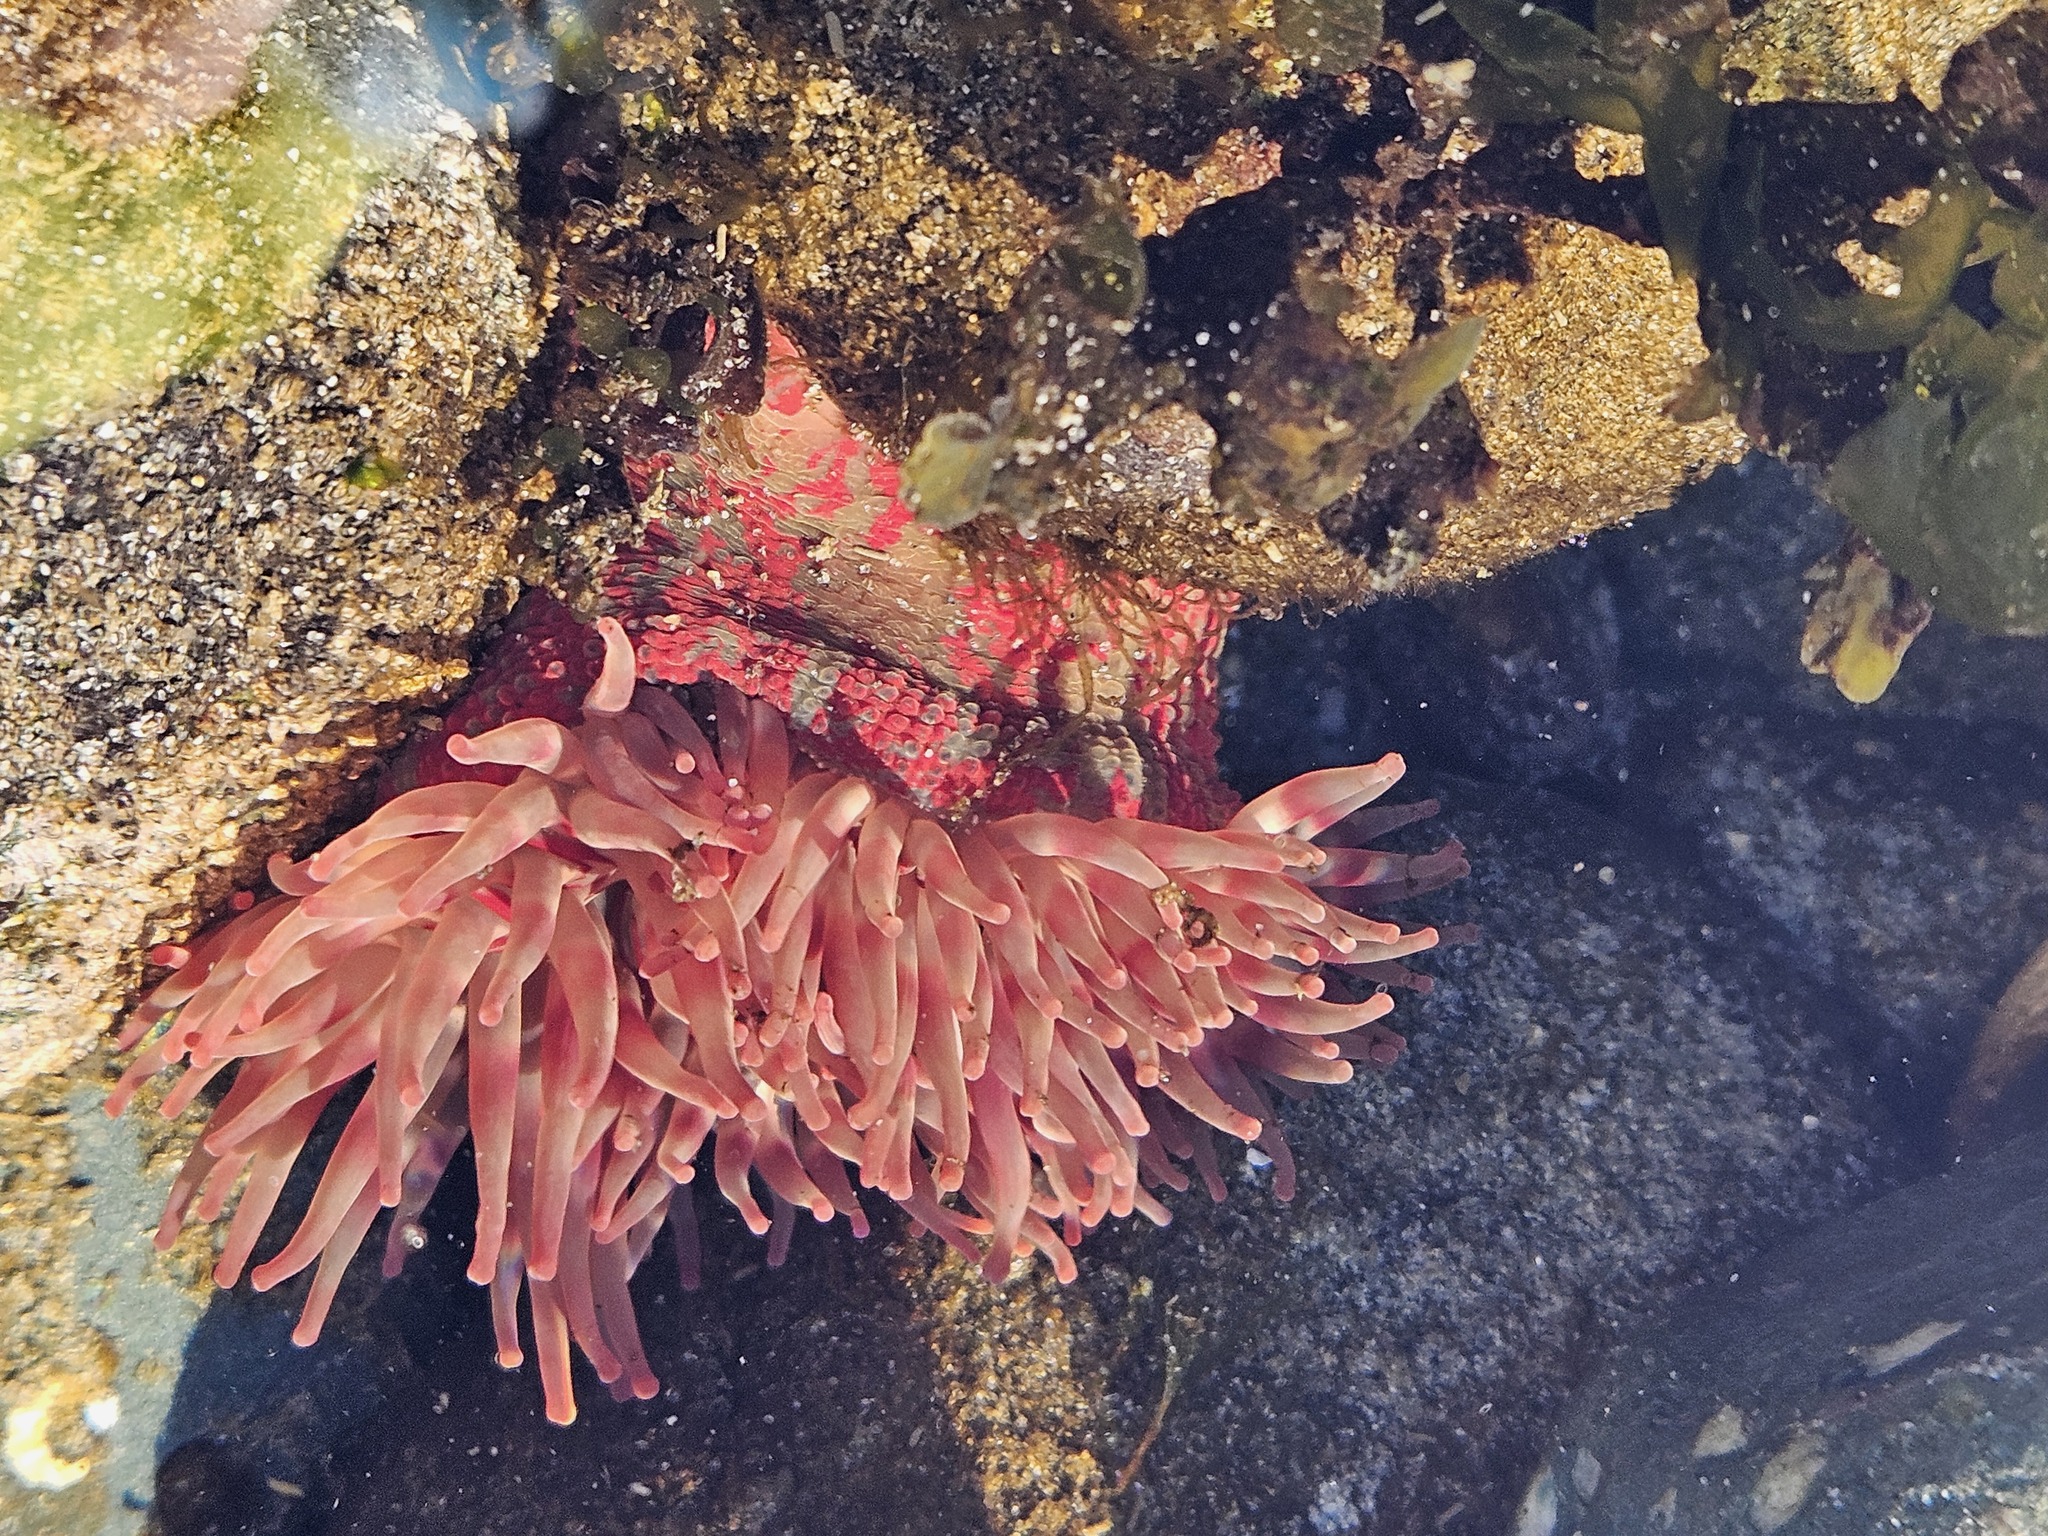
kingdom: Animalia
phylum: Cnidaria
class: Anthozoa
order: Actiniaria
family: Actiniidae
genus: Urticina
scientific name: Urticina grebelnyi
